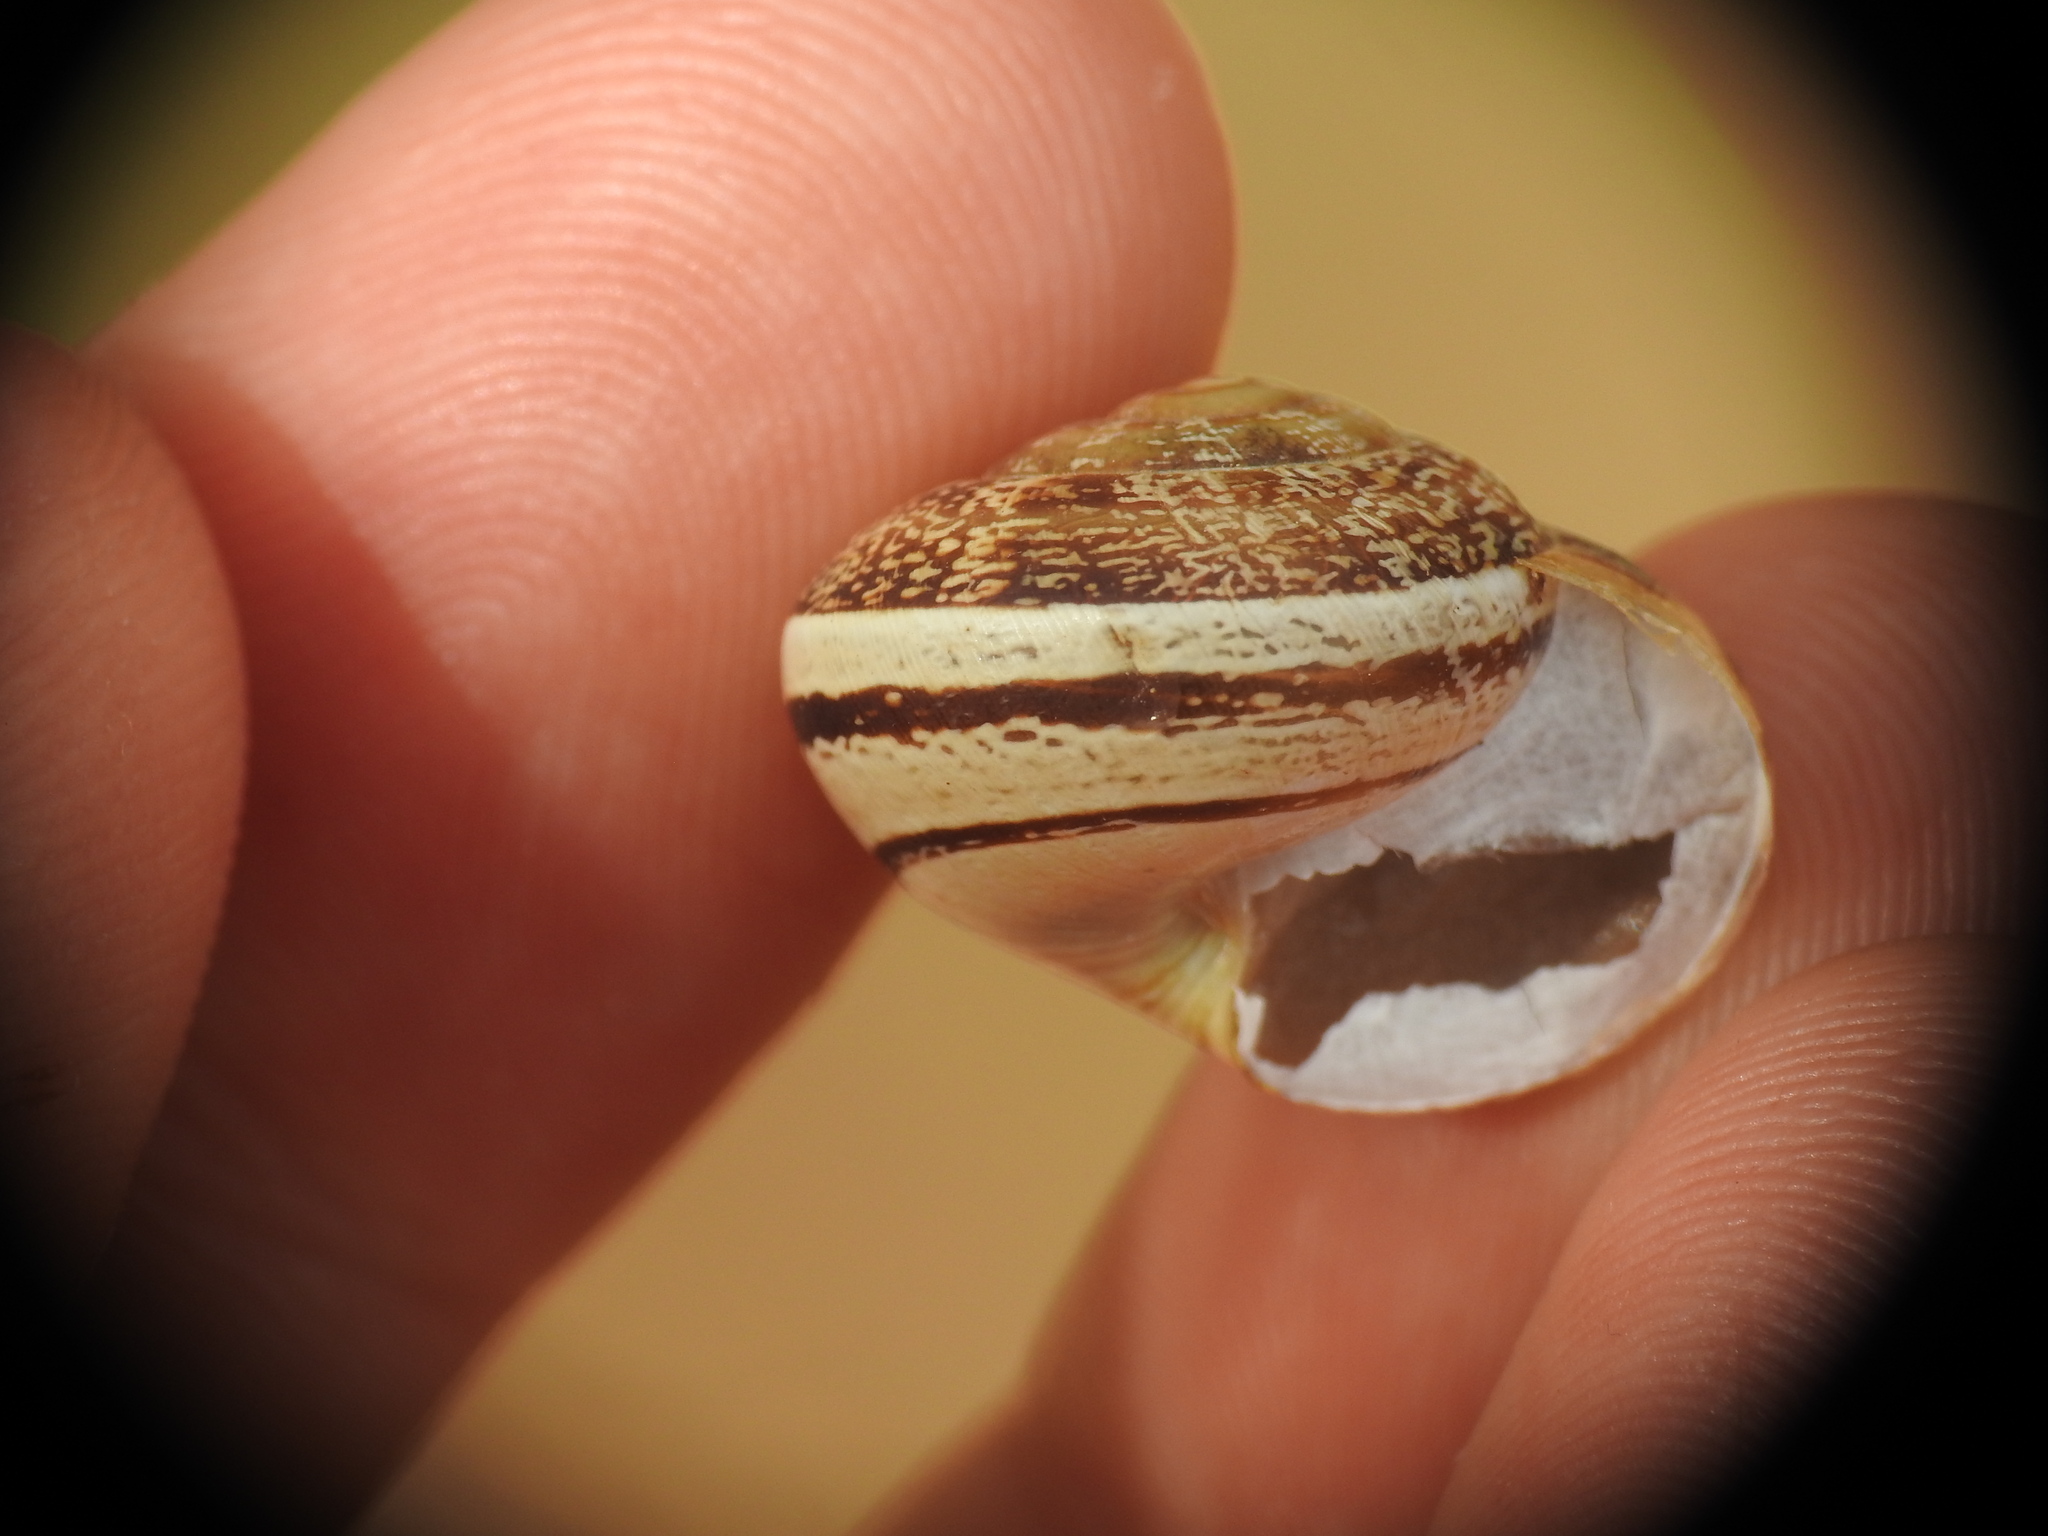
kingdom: Animalia
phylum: Mollusca
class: Gastropoda
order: Stylommatophora
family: Helicidae
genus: Eobania
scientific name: Eobania vermiculata
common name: Chocolateband snail
